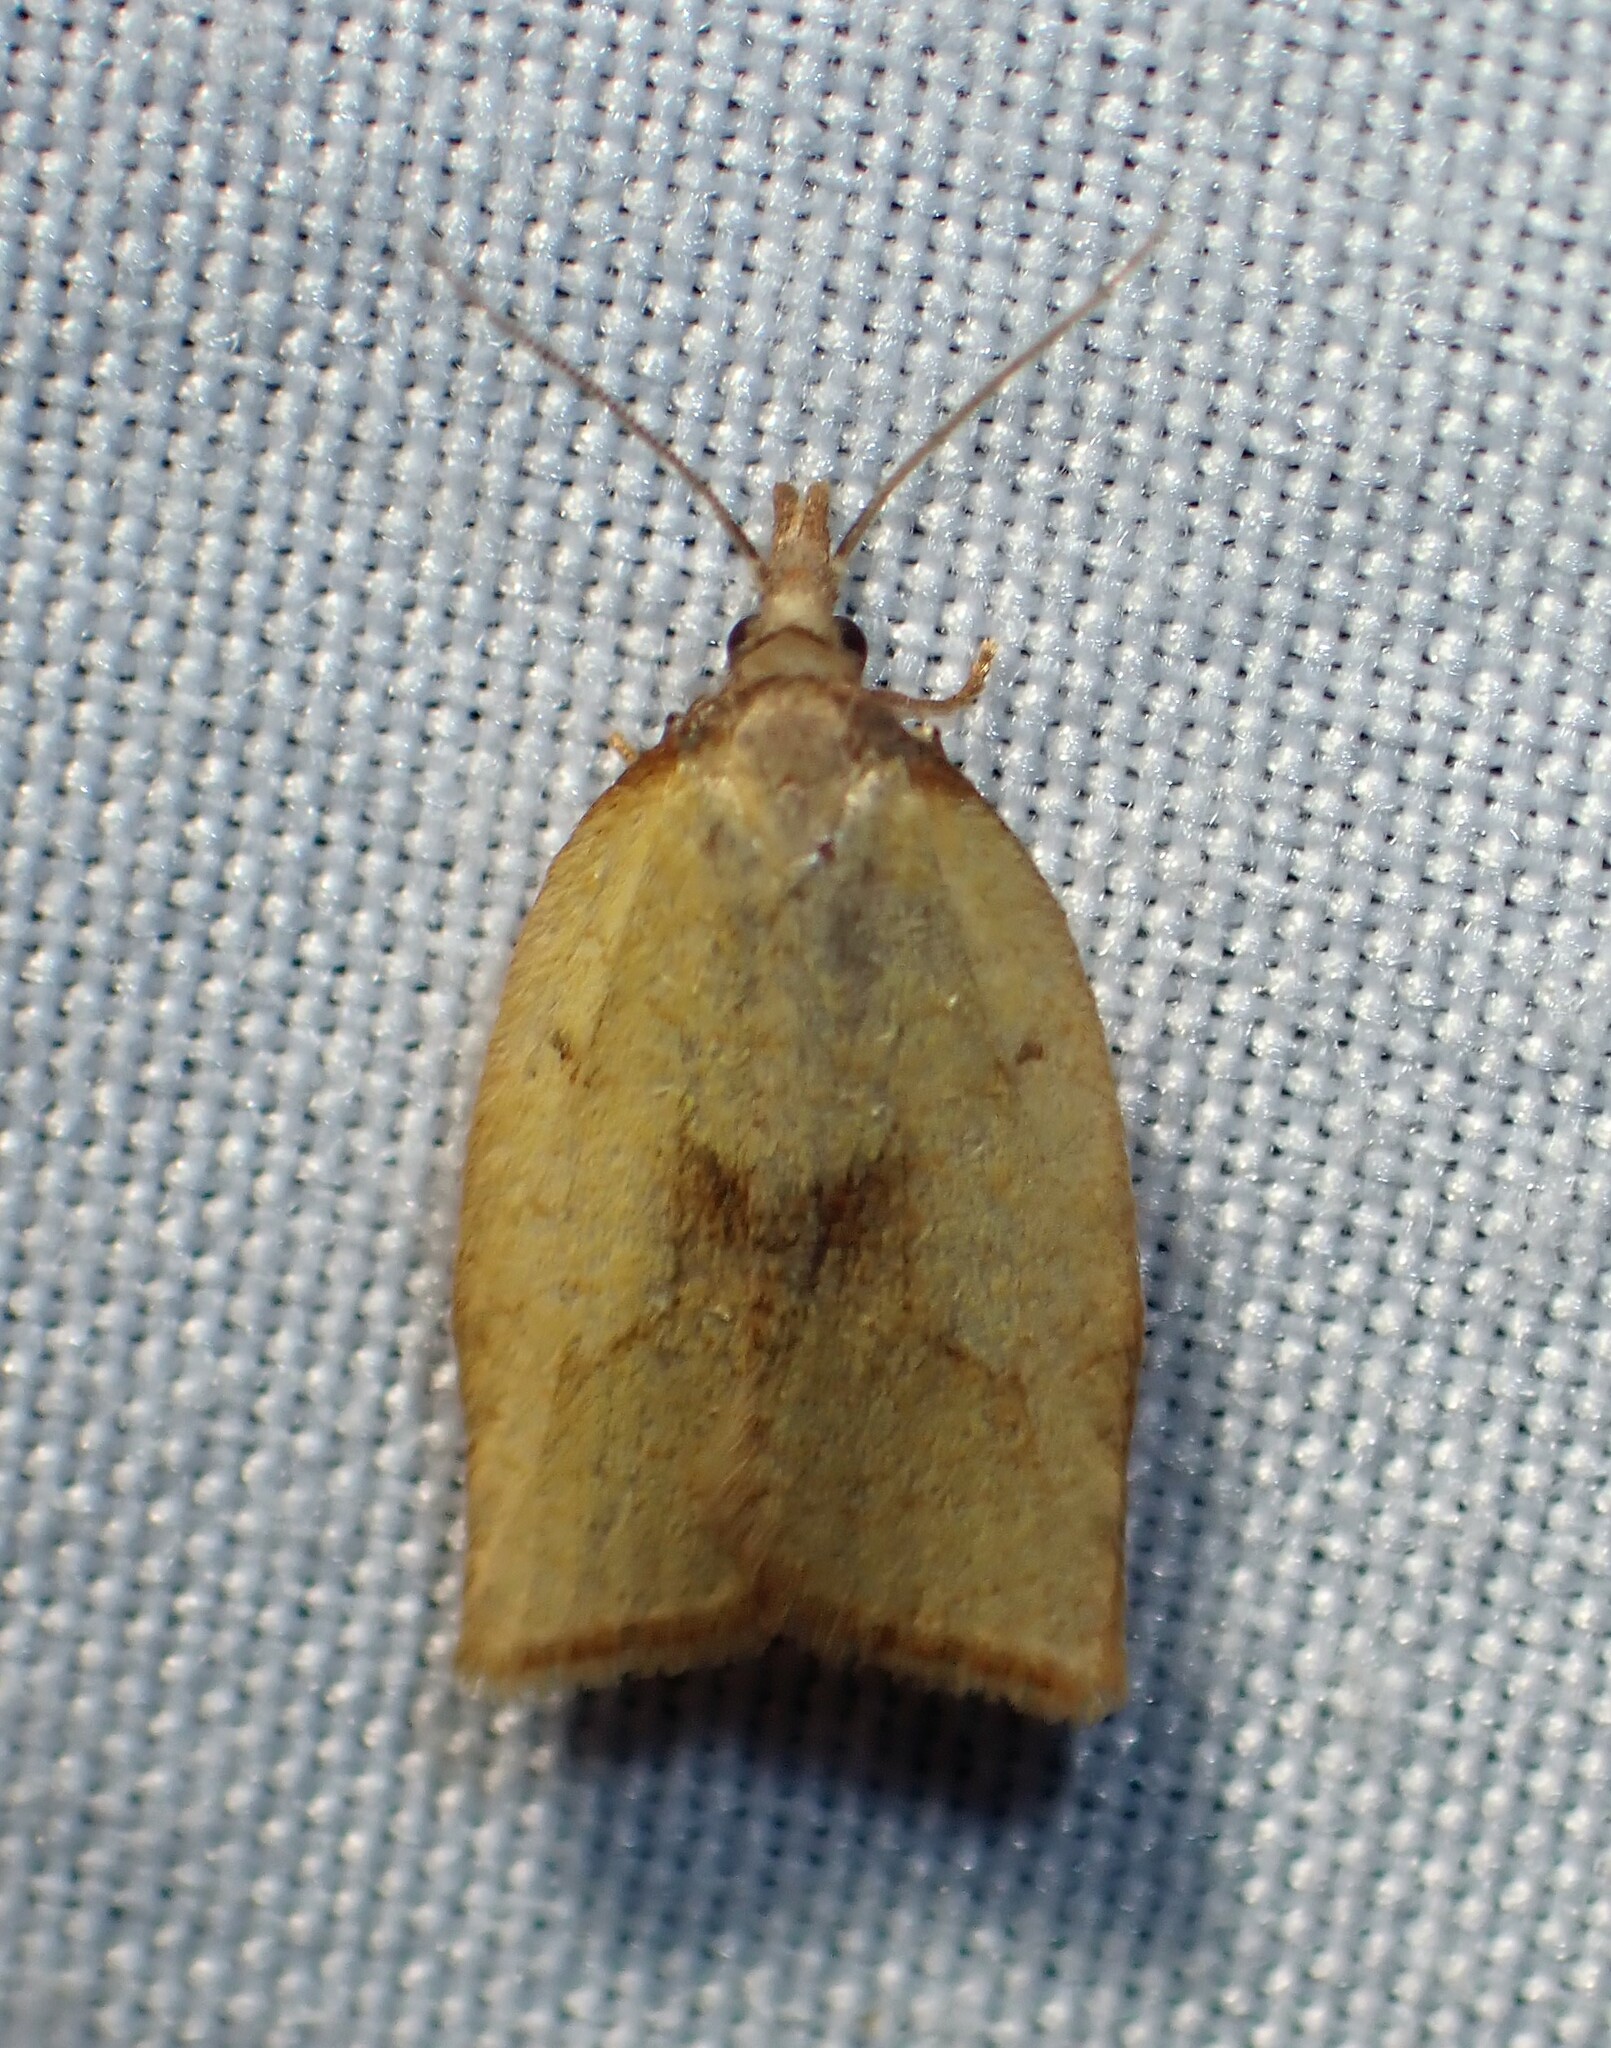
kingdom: Animalia
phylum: Arthropoda
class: Insecta
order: Lepidoptera
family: Tortricidae
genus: Sparganothis
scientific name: Sparganothis xanthoides
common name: Mosaic sparganothis moth
